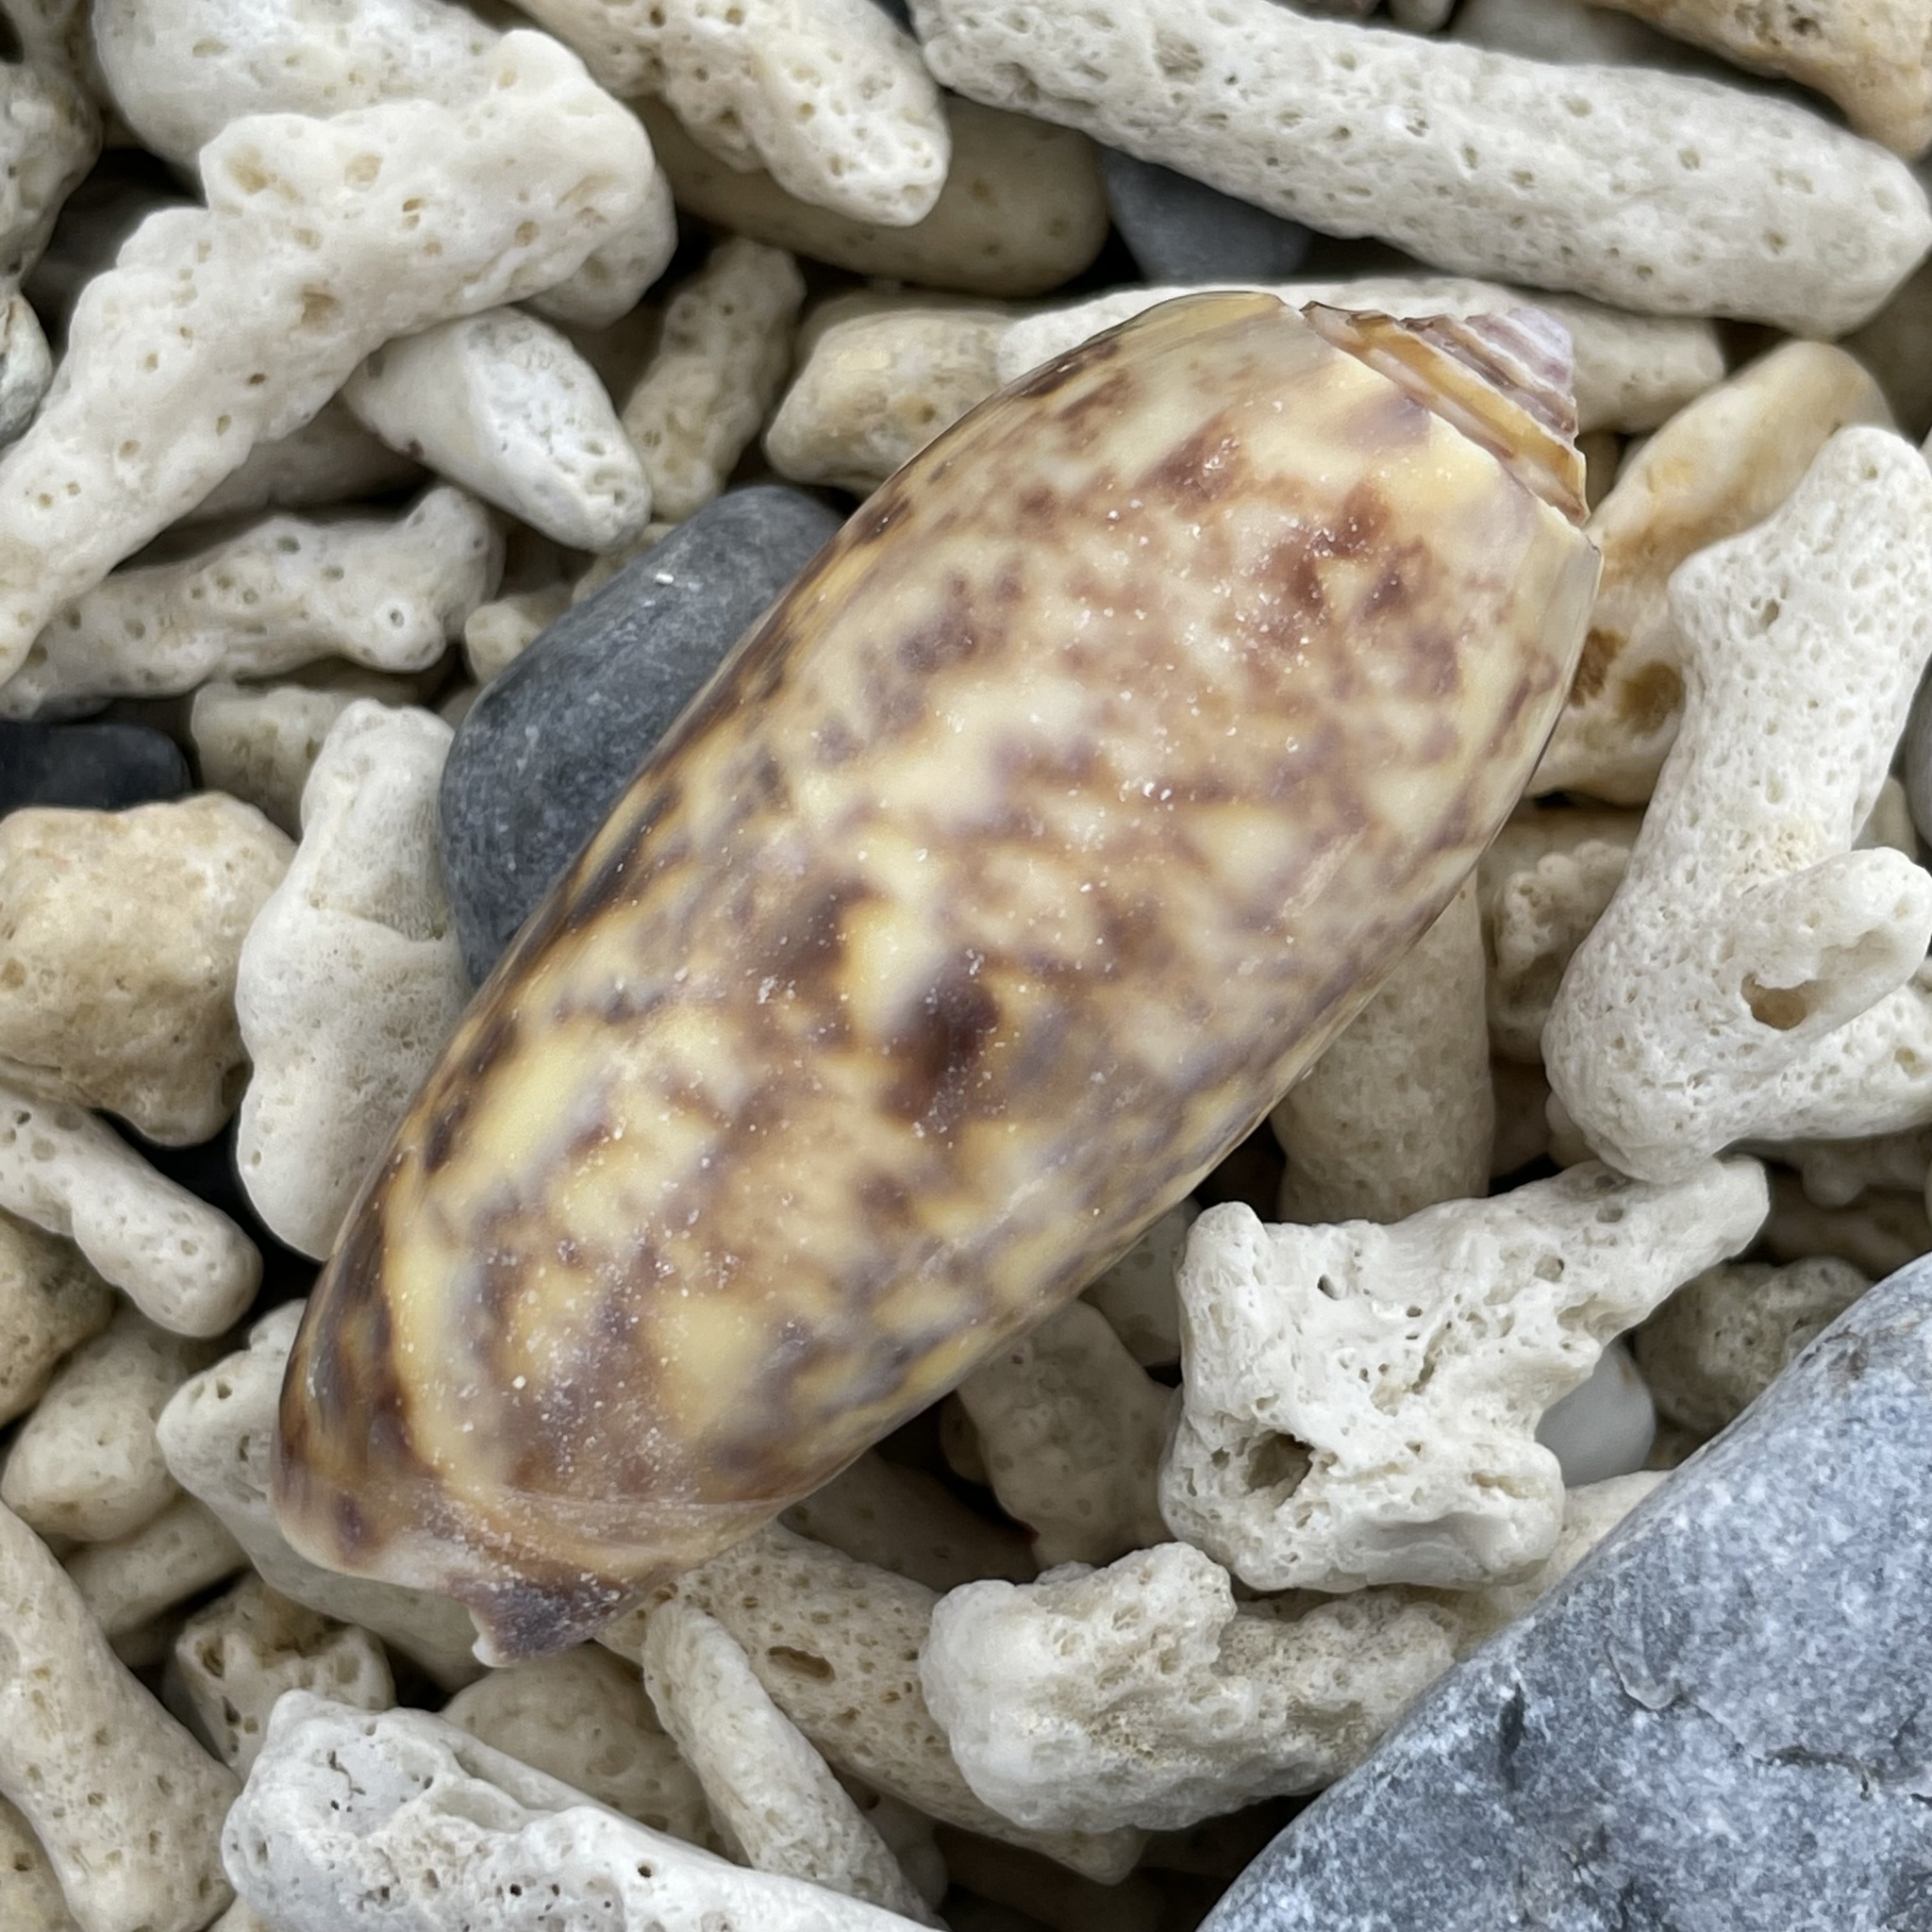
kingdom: Animalia
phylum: Mollusca
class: Gastropoda
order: Neogastropoda
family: Olividae
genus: Oliva
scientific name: Oliva miniacea
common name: Pacific common olive
